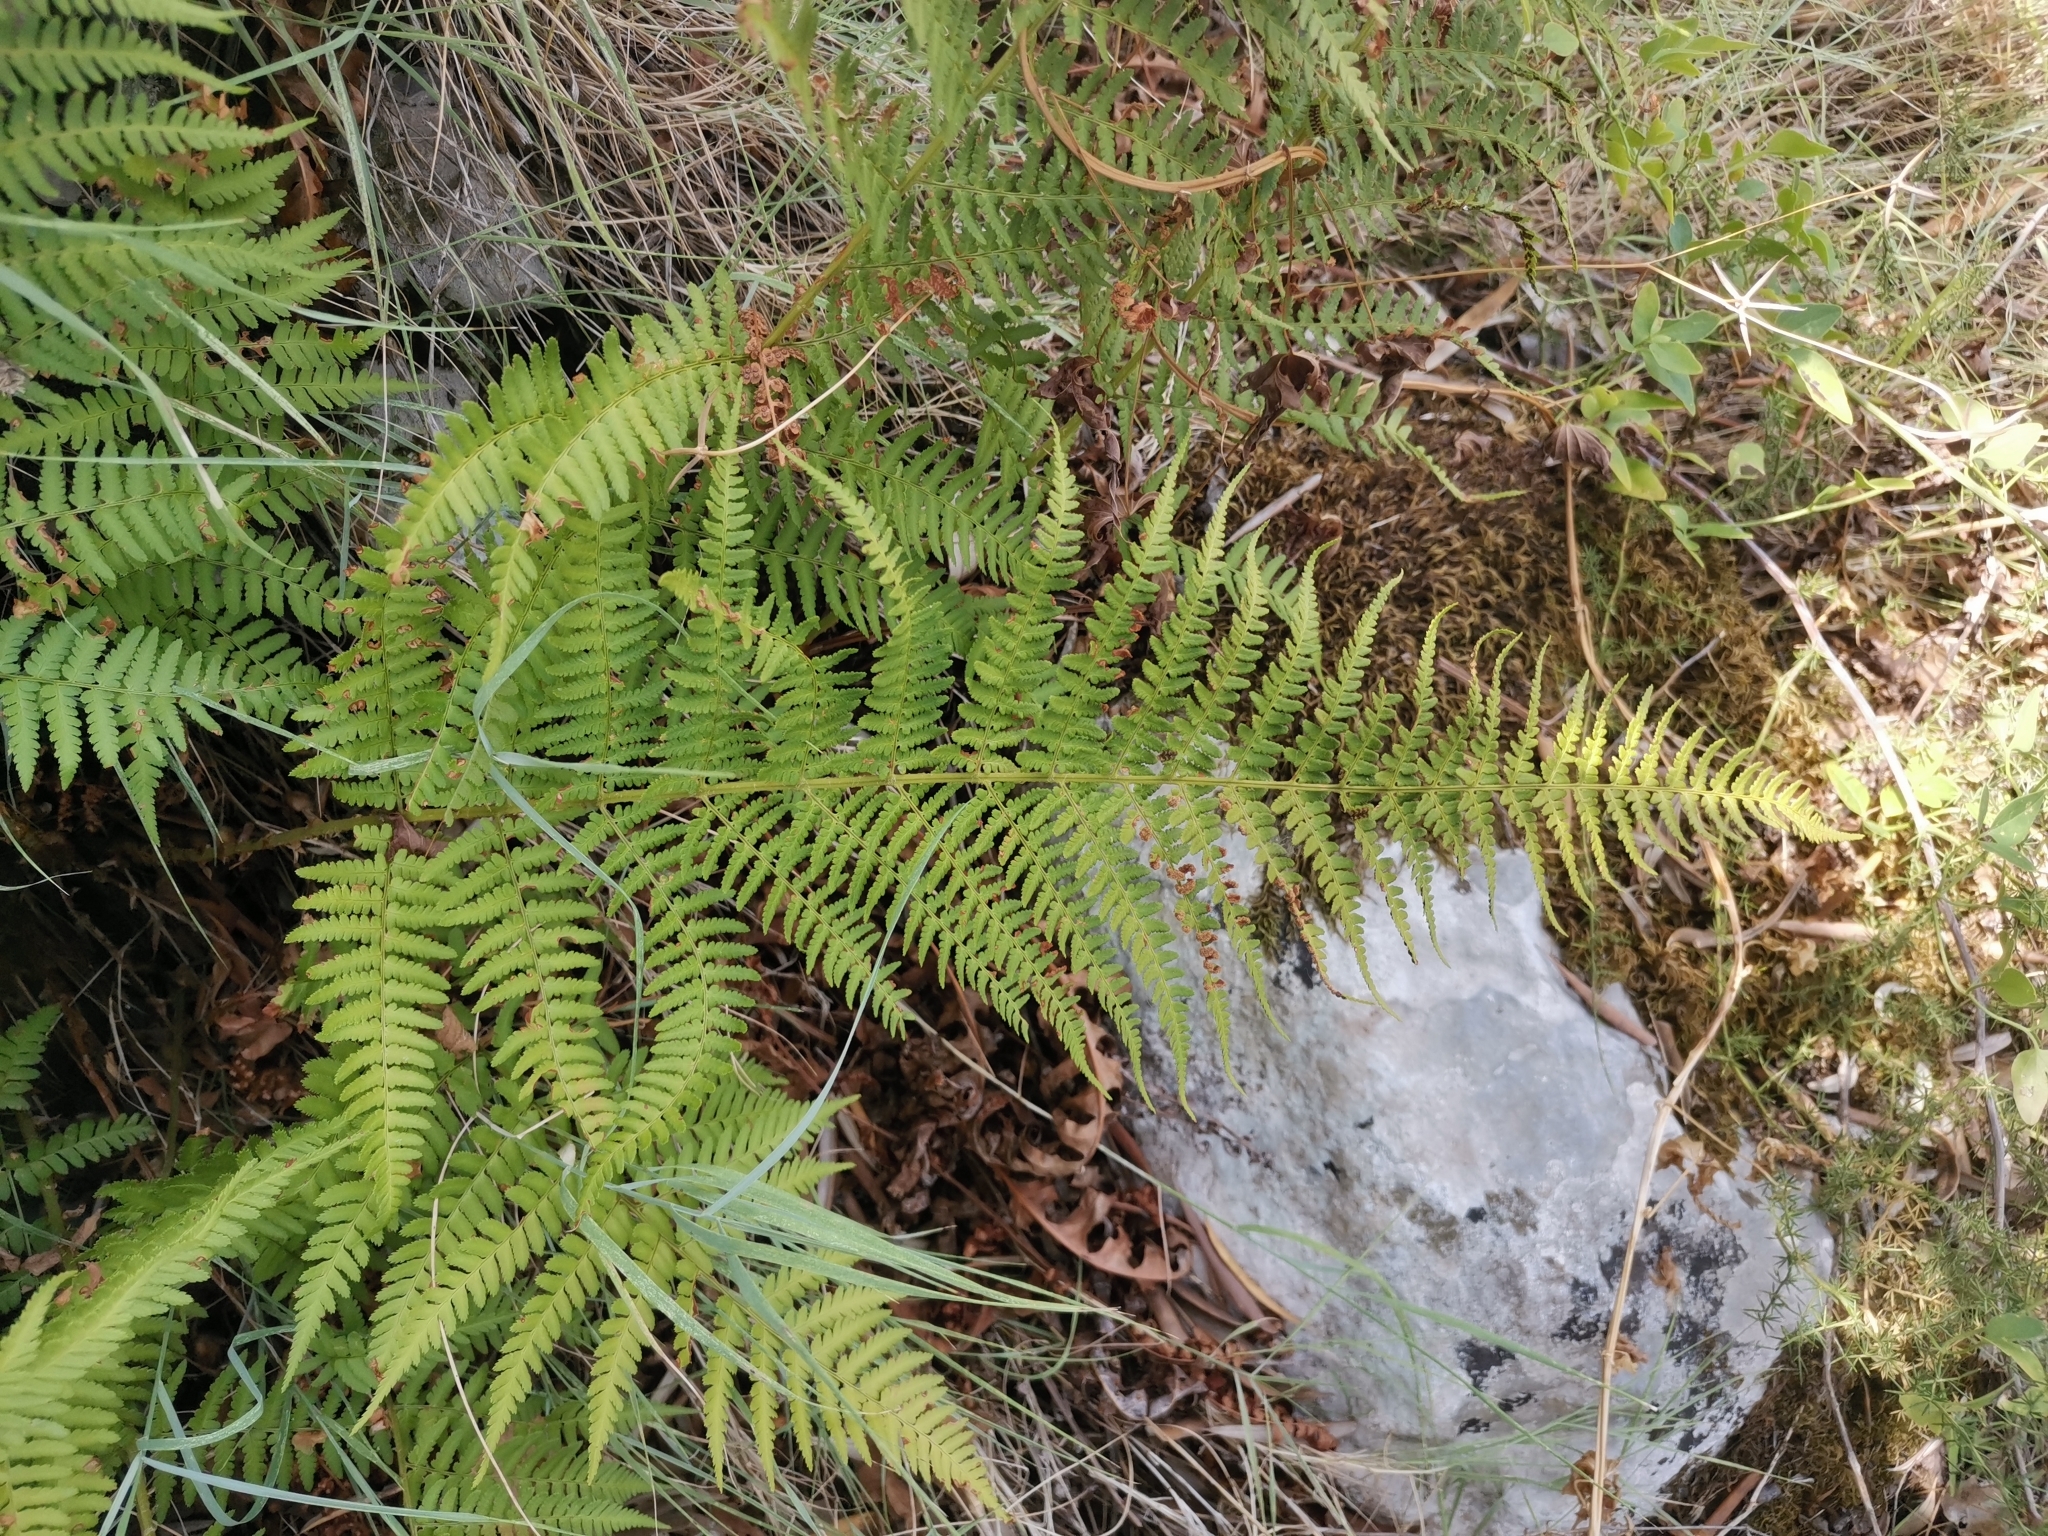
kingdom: Plantae
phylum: Tracheophyta
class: Polypodiopsida
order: Polypodiales
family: Dryopteridaceae
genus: Dryopteris
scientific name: Dryopteris pallida
